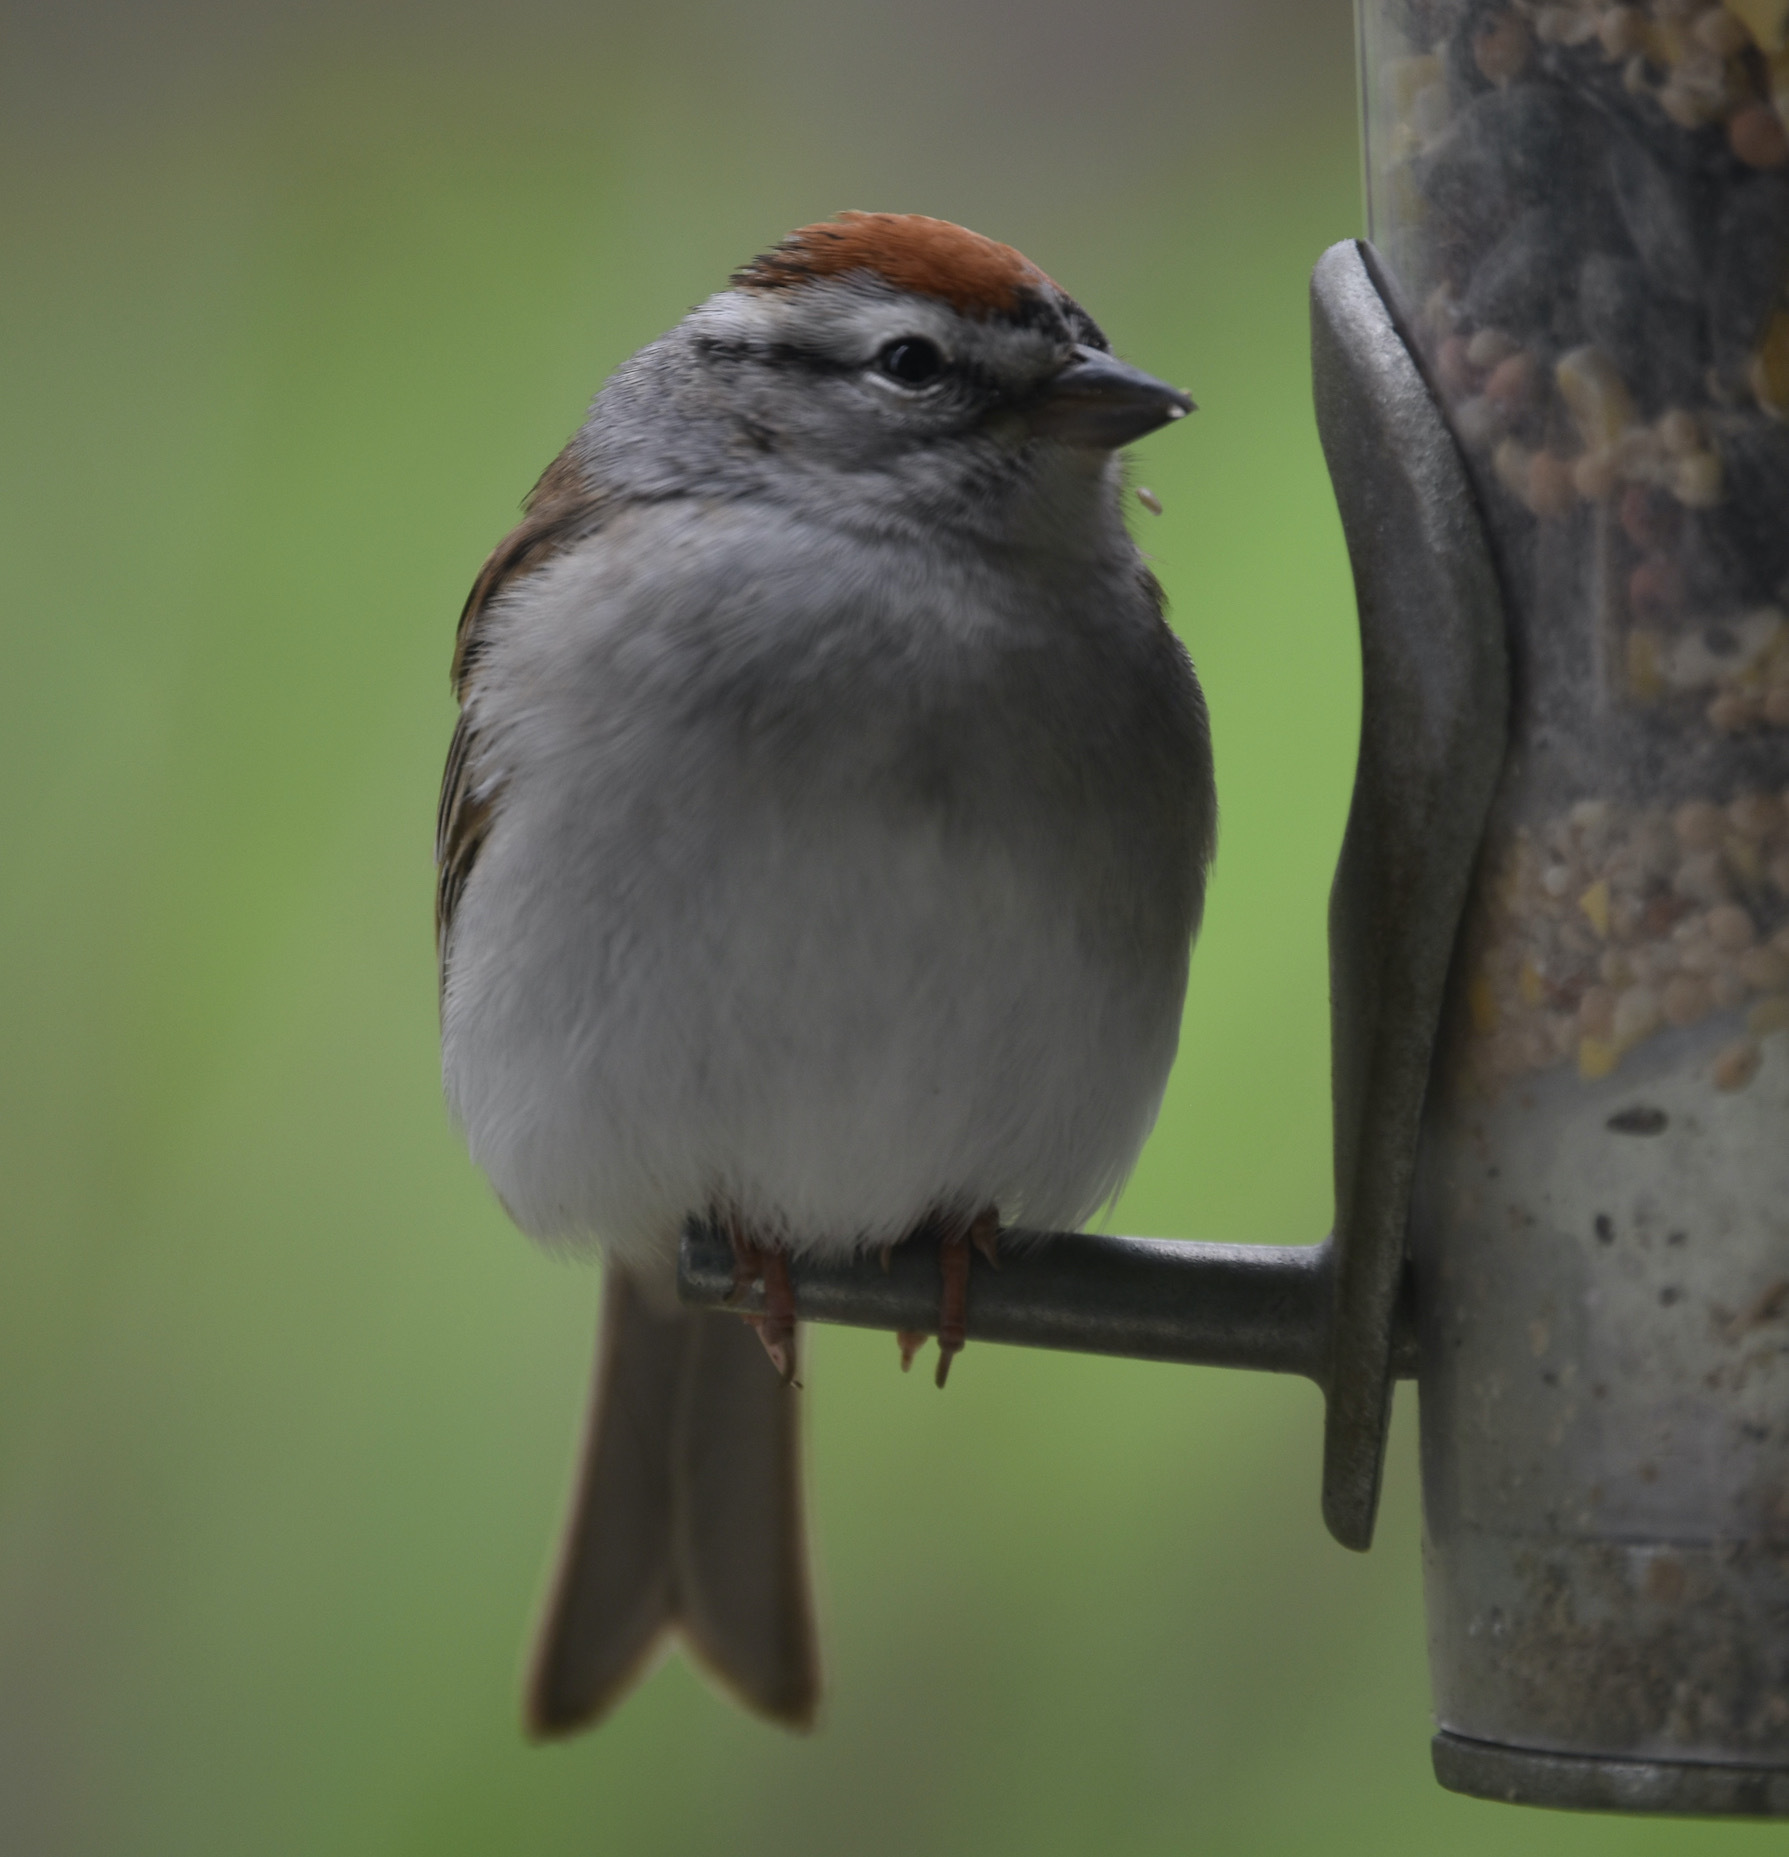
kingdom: Animalia
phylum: Chordata
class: Aves
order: Passeriformes
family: Passerellidae
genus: Spizella
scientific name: Spizella passerina
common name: Chipping sparrow
